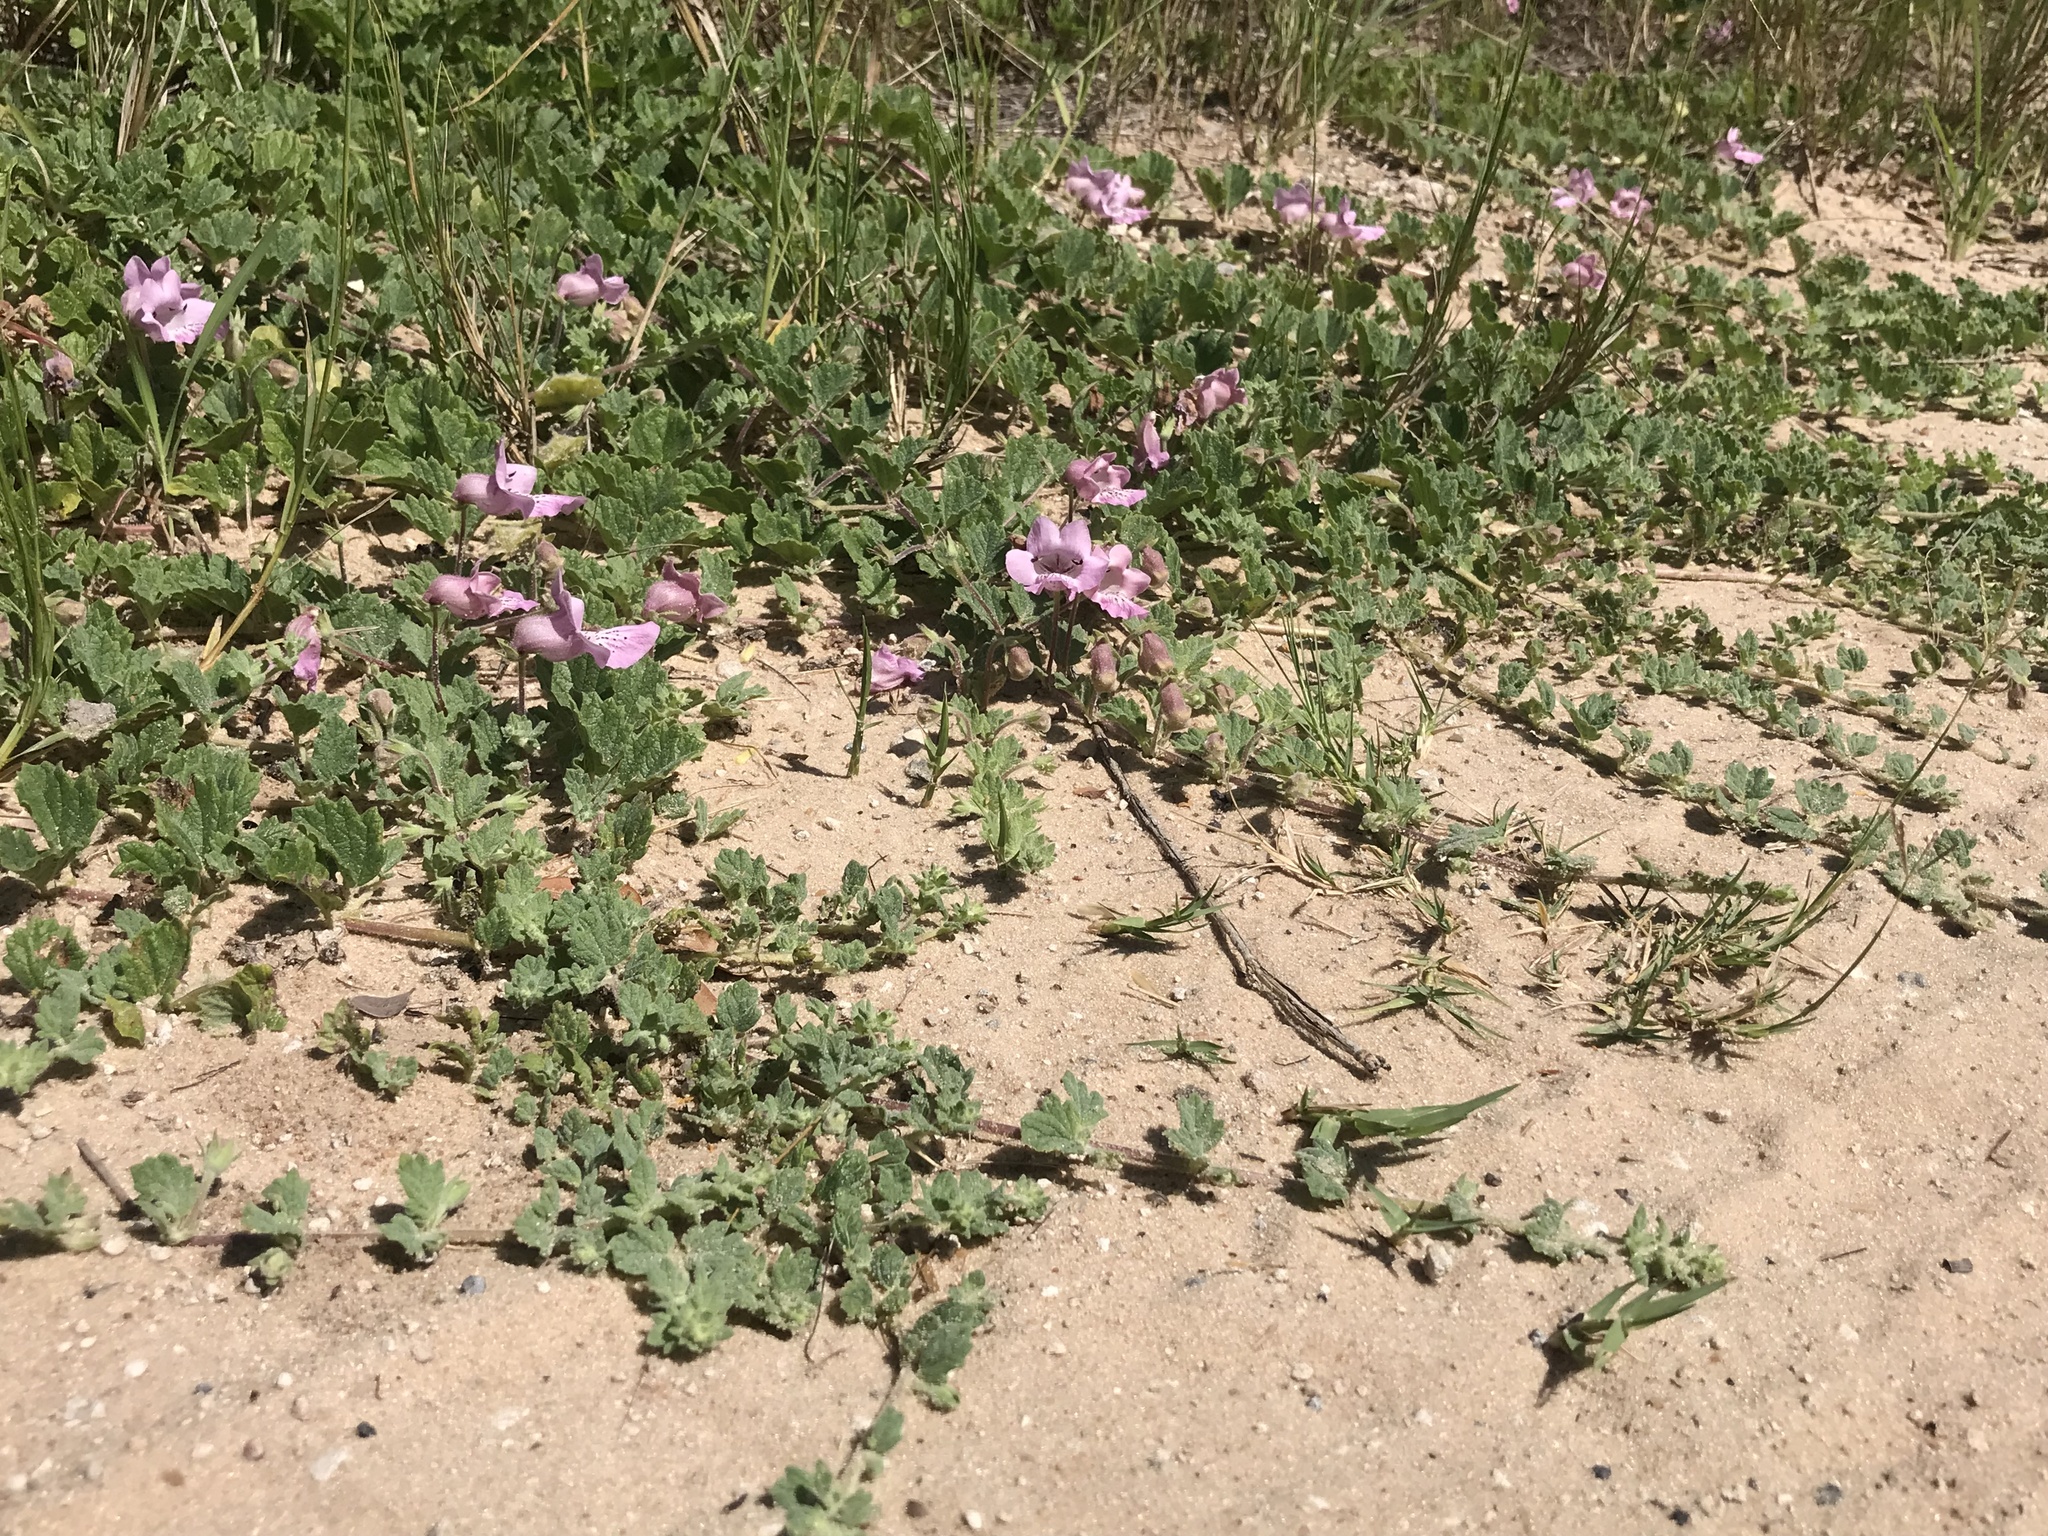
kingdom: Plantae
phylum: Tracheophyta
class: Magnoliopsida
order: Lamiales
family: Pedaliaceae
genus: Dicerocaryum
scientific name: Dicerocaryum eriocarpum
